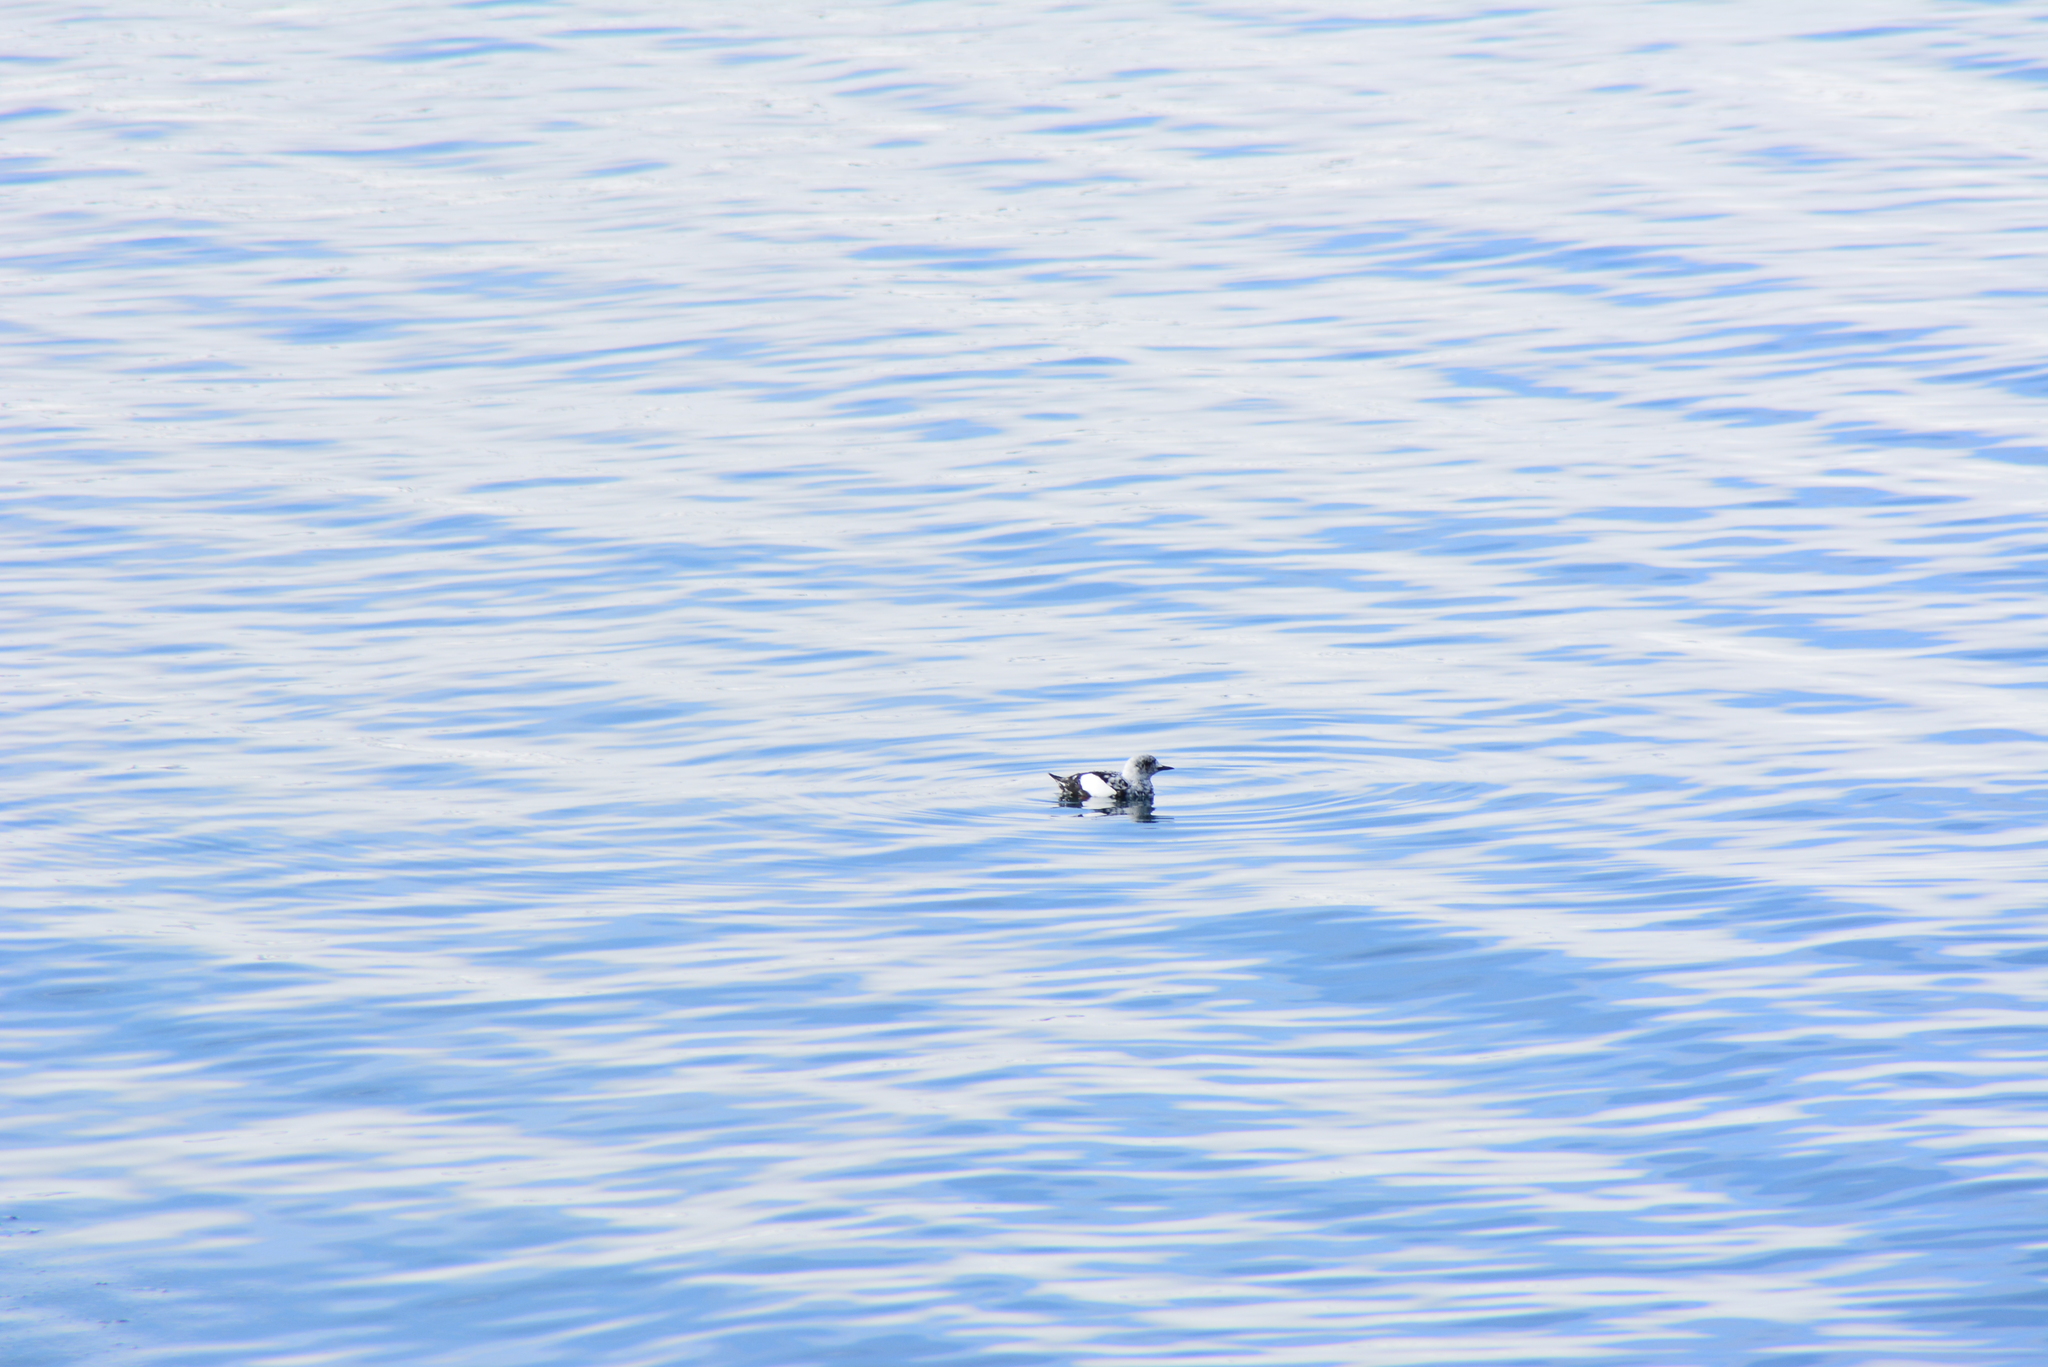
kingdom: Animalia
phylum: Chordata
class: Aves
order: Charadriiformes
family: Alcidae
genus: Cepphus
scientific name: Cepphus grylle
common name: Black guillemot
